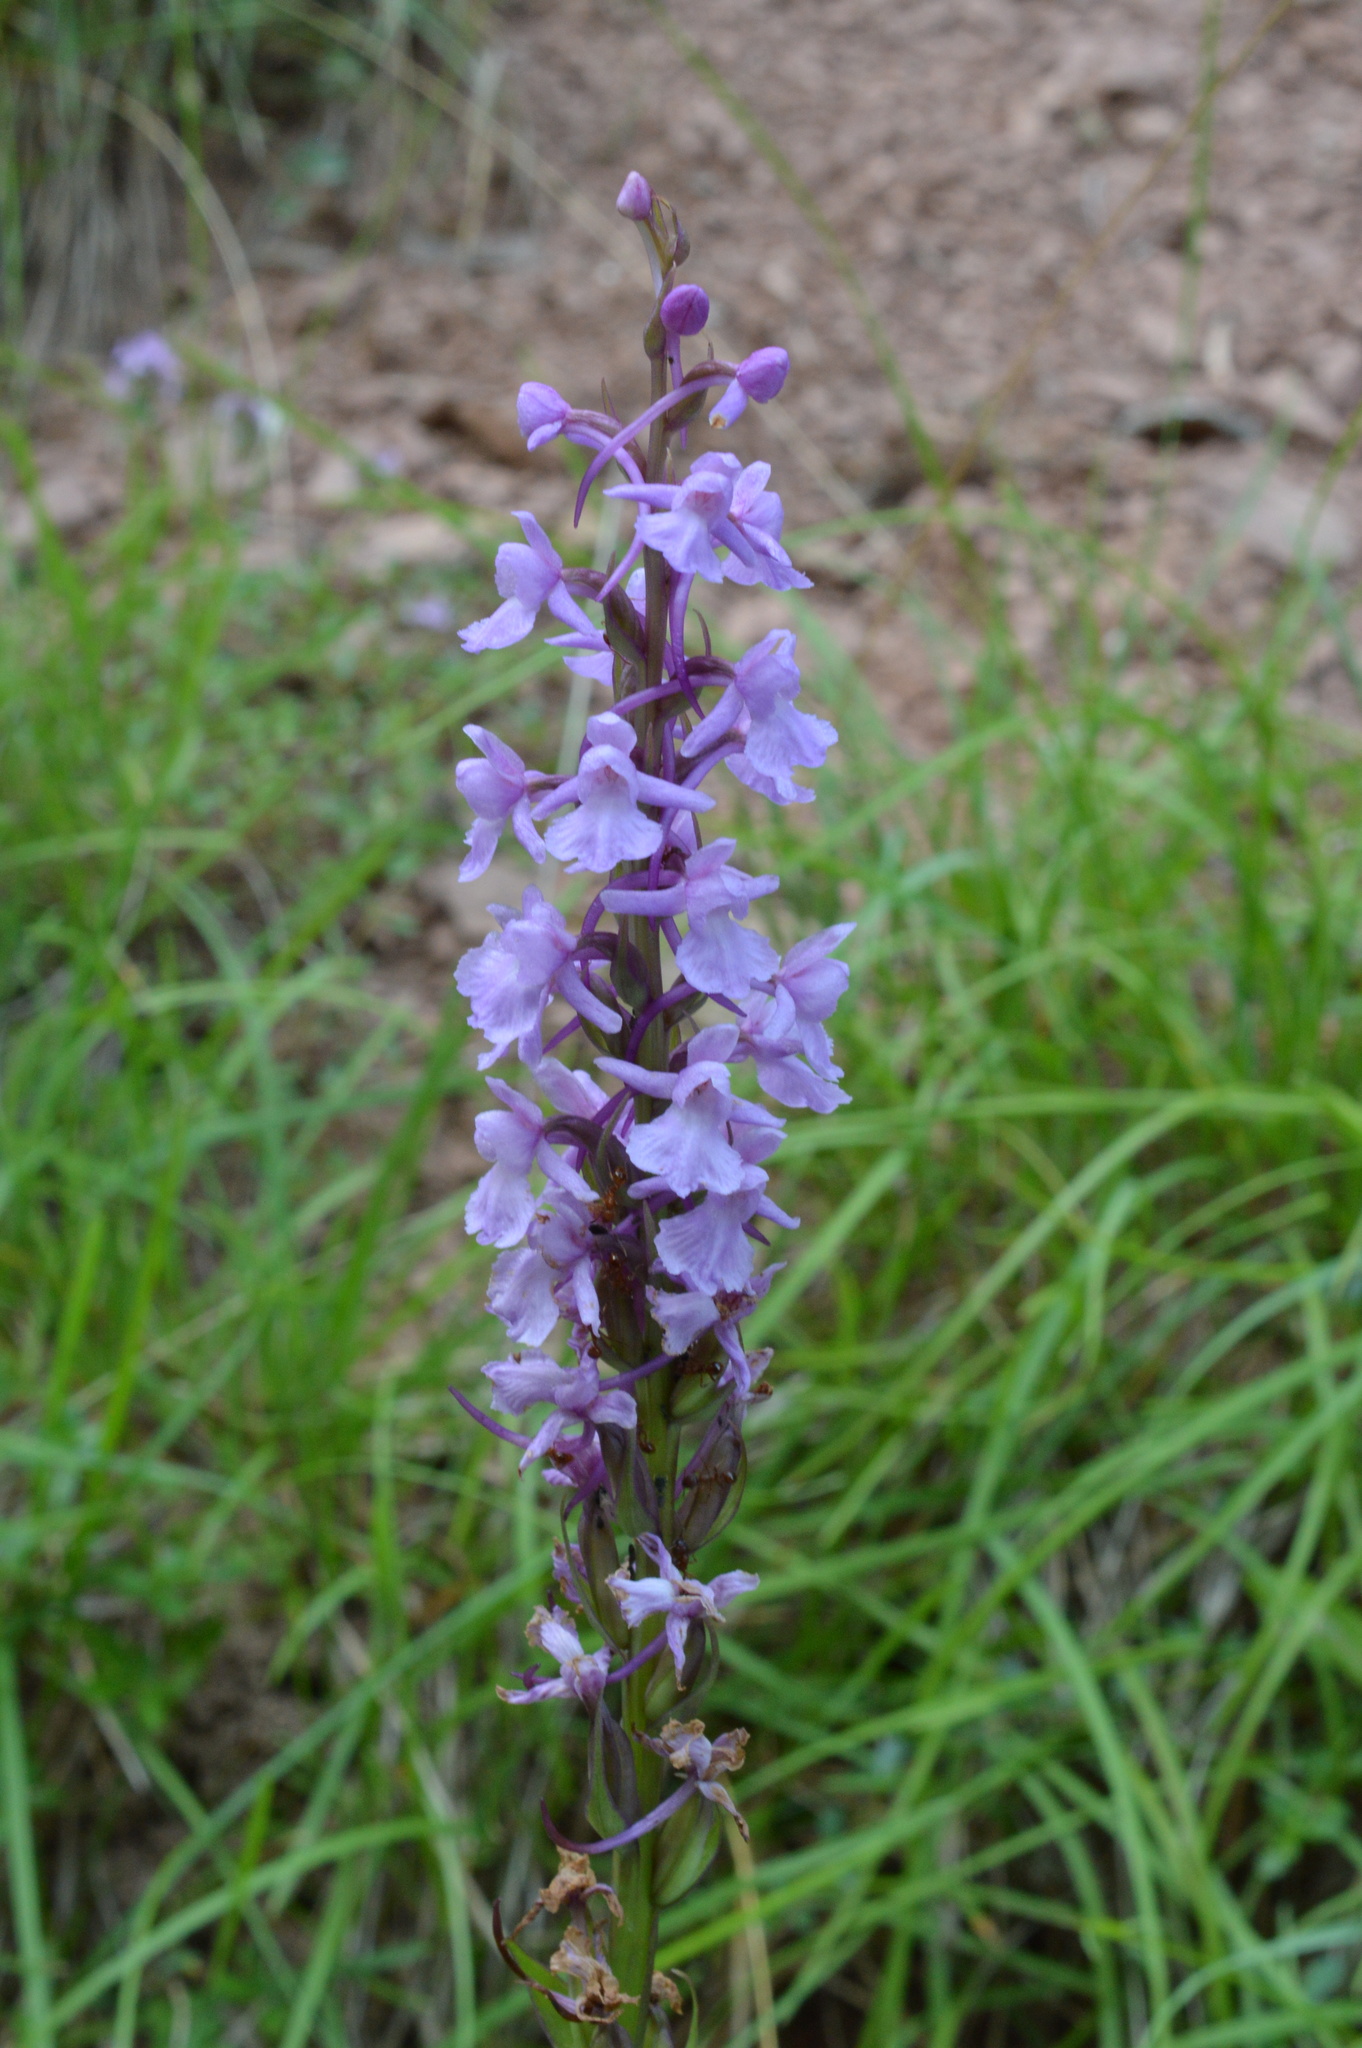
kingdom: Plantae
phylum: Tracheophyta
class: Liliopsida
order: Asparagales
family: Orchidaceae
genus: Gymnadenia
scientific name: Gymnadenia conopsea
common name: Fragrant orchid
